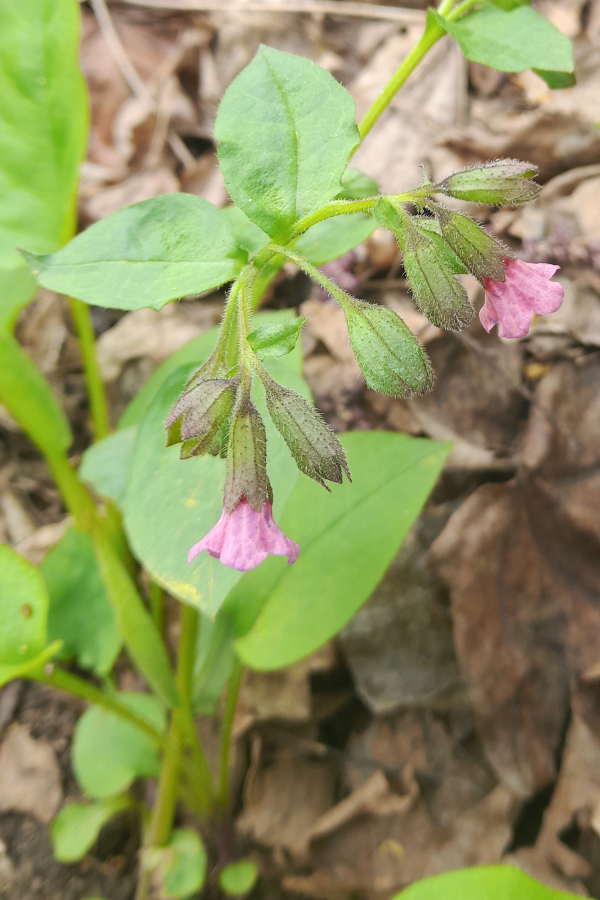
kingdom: Plantae
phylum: Tracheophyta
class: Magnoliopsida
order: Boraginales
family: Boraginaceae
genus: Pulmonaria
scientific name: Pulmonaria obscura
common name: Suffolk lungwort
